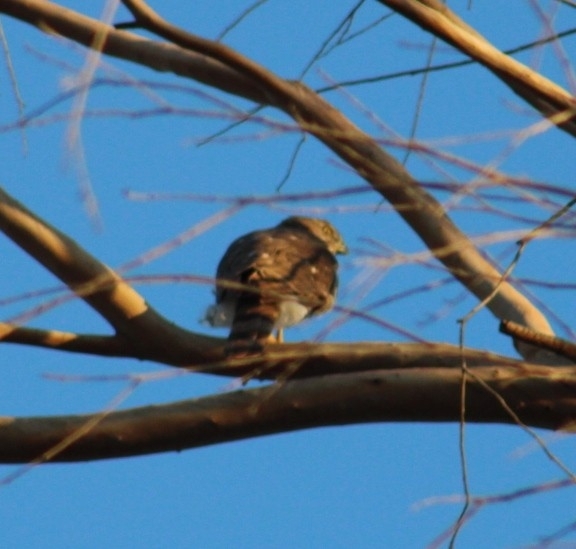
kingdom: Animalia
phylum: Chordata
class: Aves
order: Accipitriformes
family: Accipitridae
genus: Accipiter
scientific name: Accipiter cooperii
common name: Cooper's hawk
